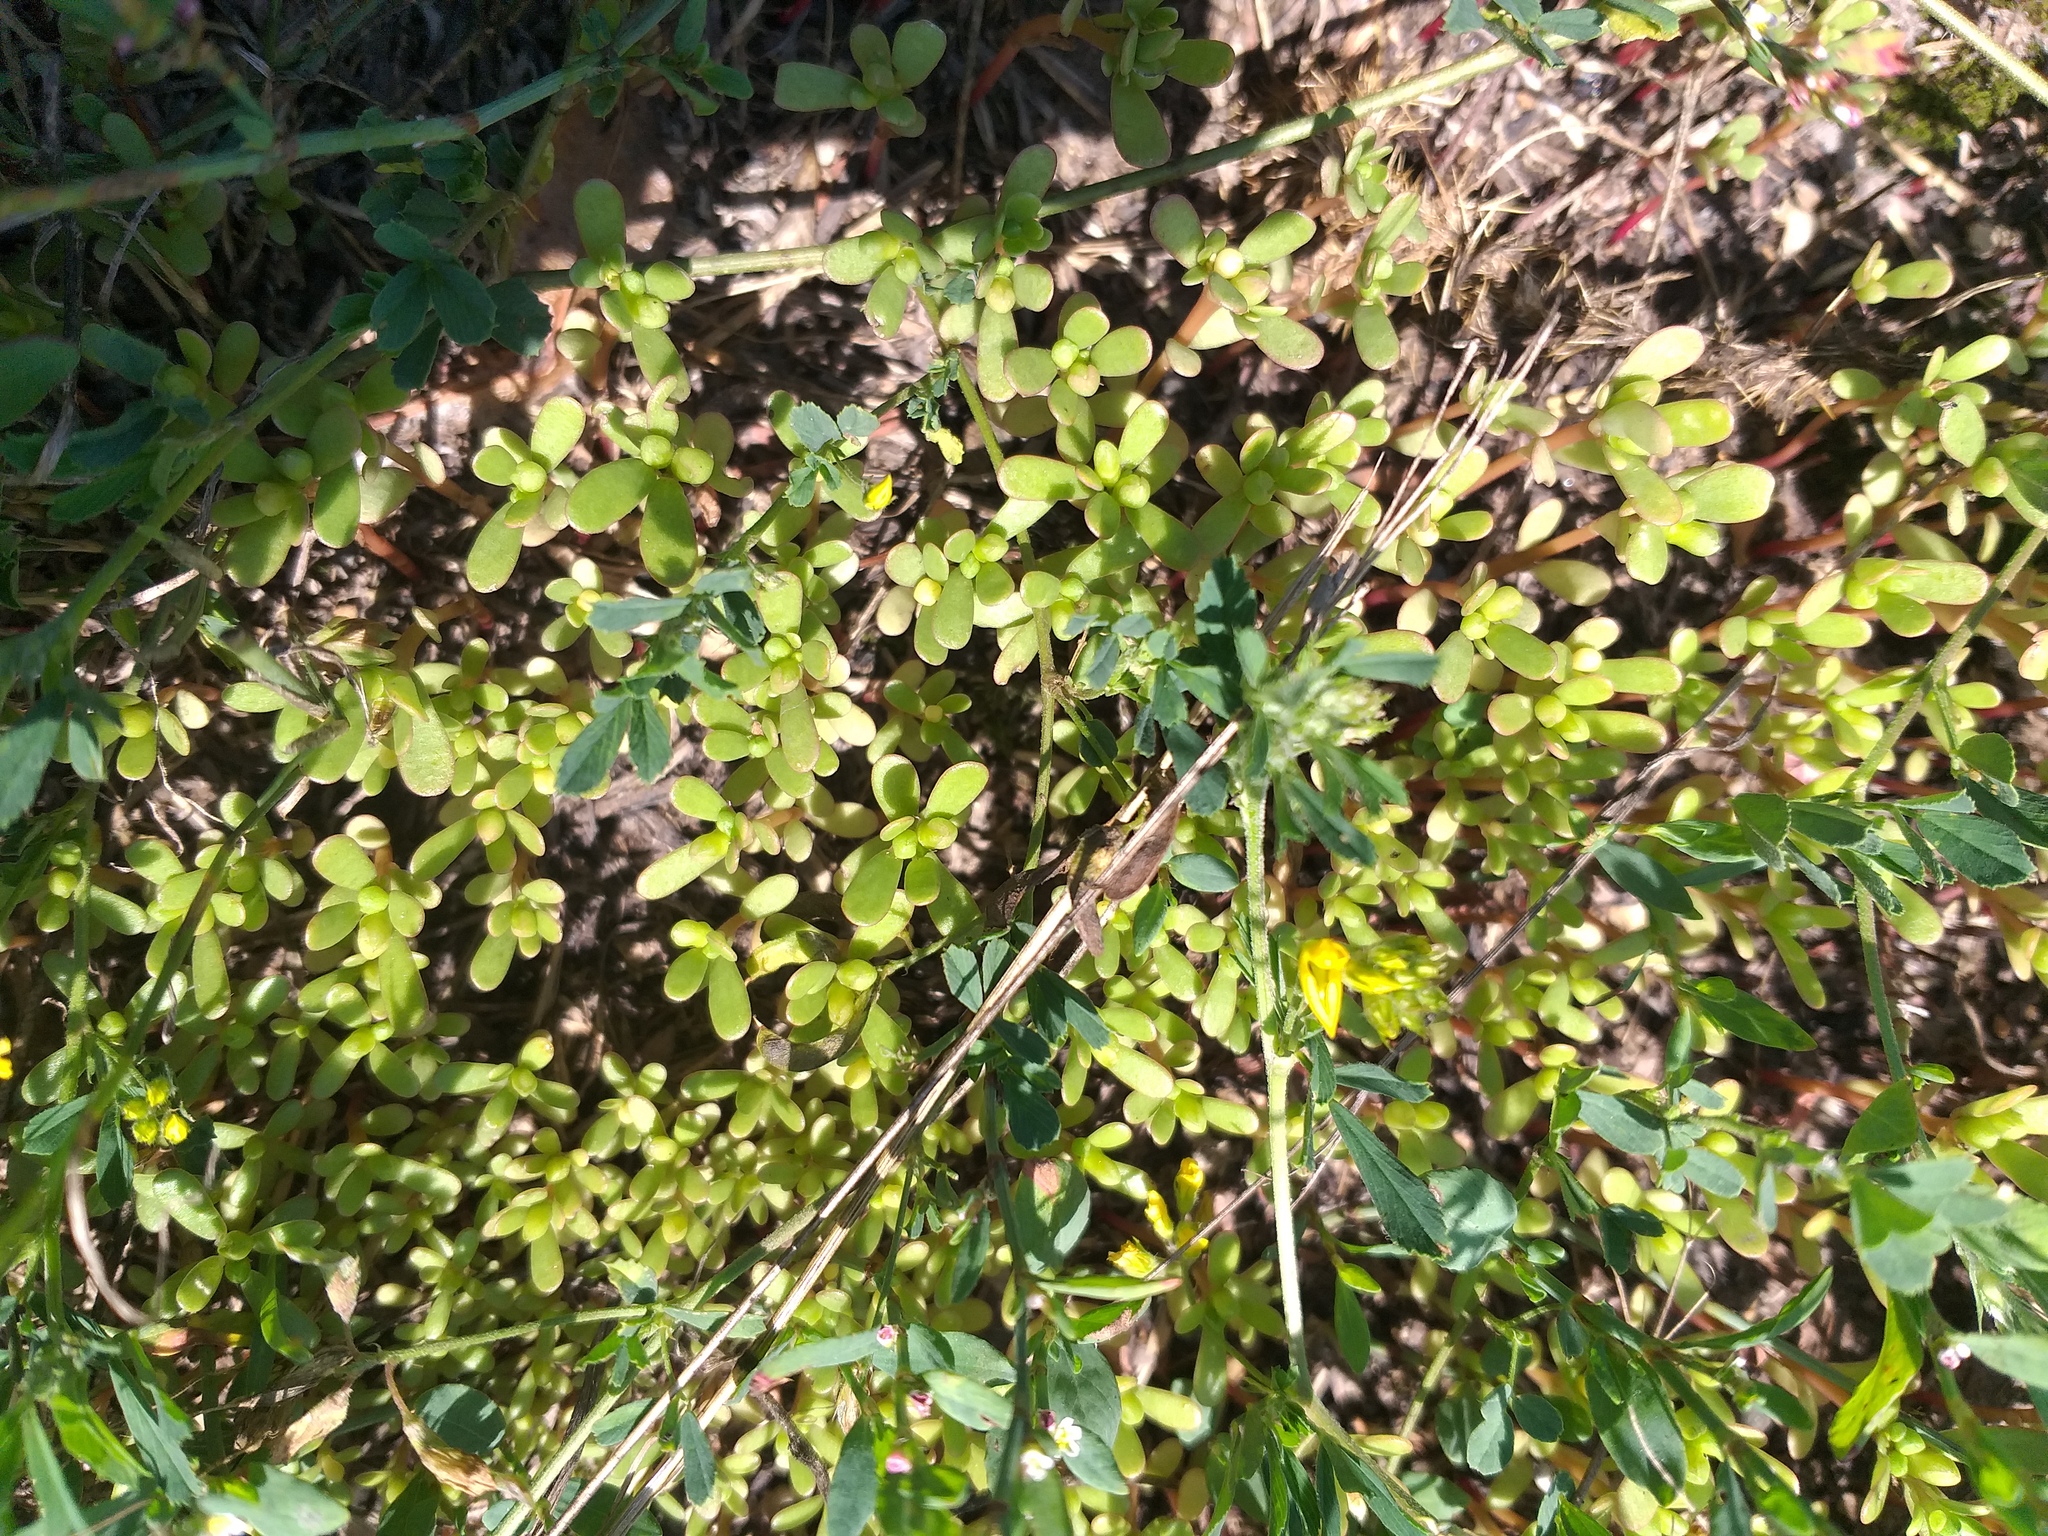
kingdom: Plantae
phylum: Tracheophyta
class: Magnoliopsida
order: Caryophyllales
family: Portulacaceae
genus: Portulaca
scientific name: Portulaca oleracea
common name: Common purslane
